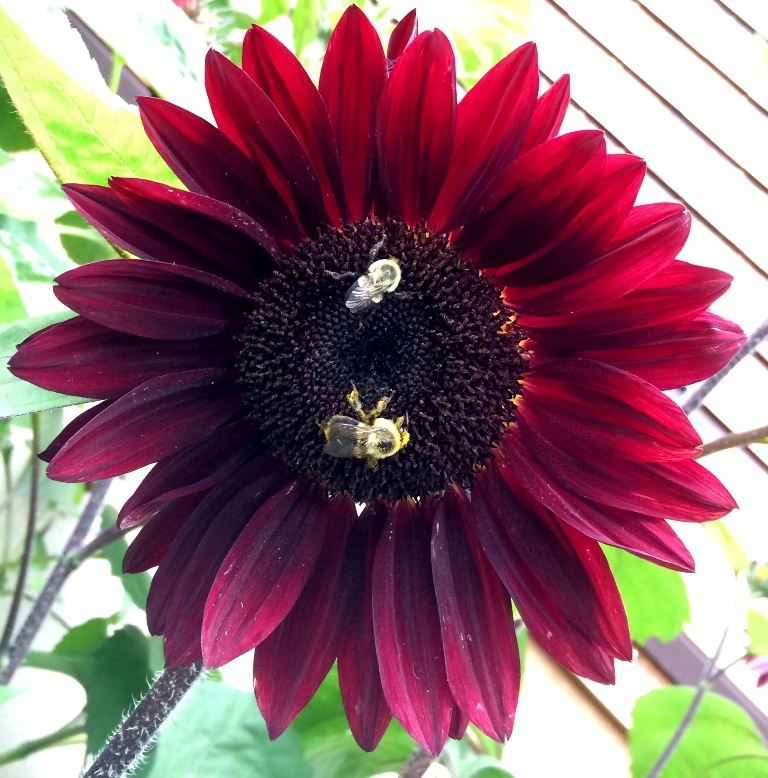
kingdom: Animalia
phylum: Arthropoda
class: Insecta
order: Hymenoptera
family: Apidae
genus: Bombus
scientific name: Bombus impatiens
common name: Common eastern bumble bee
